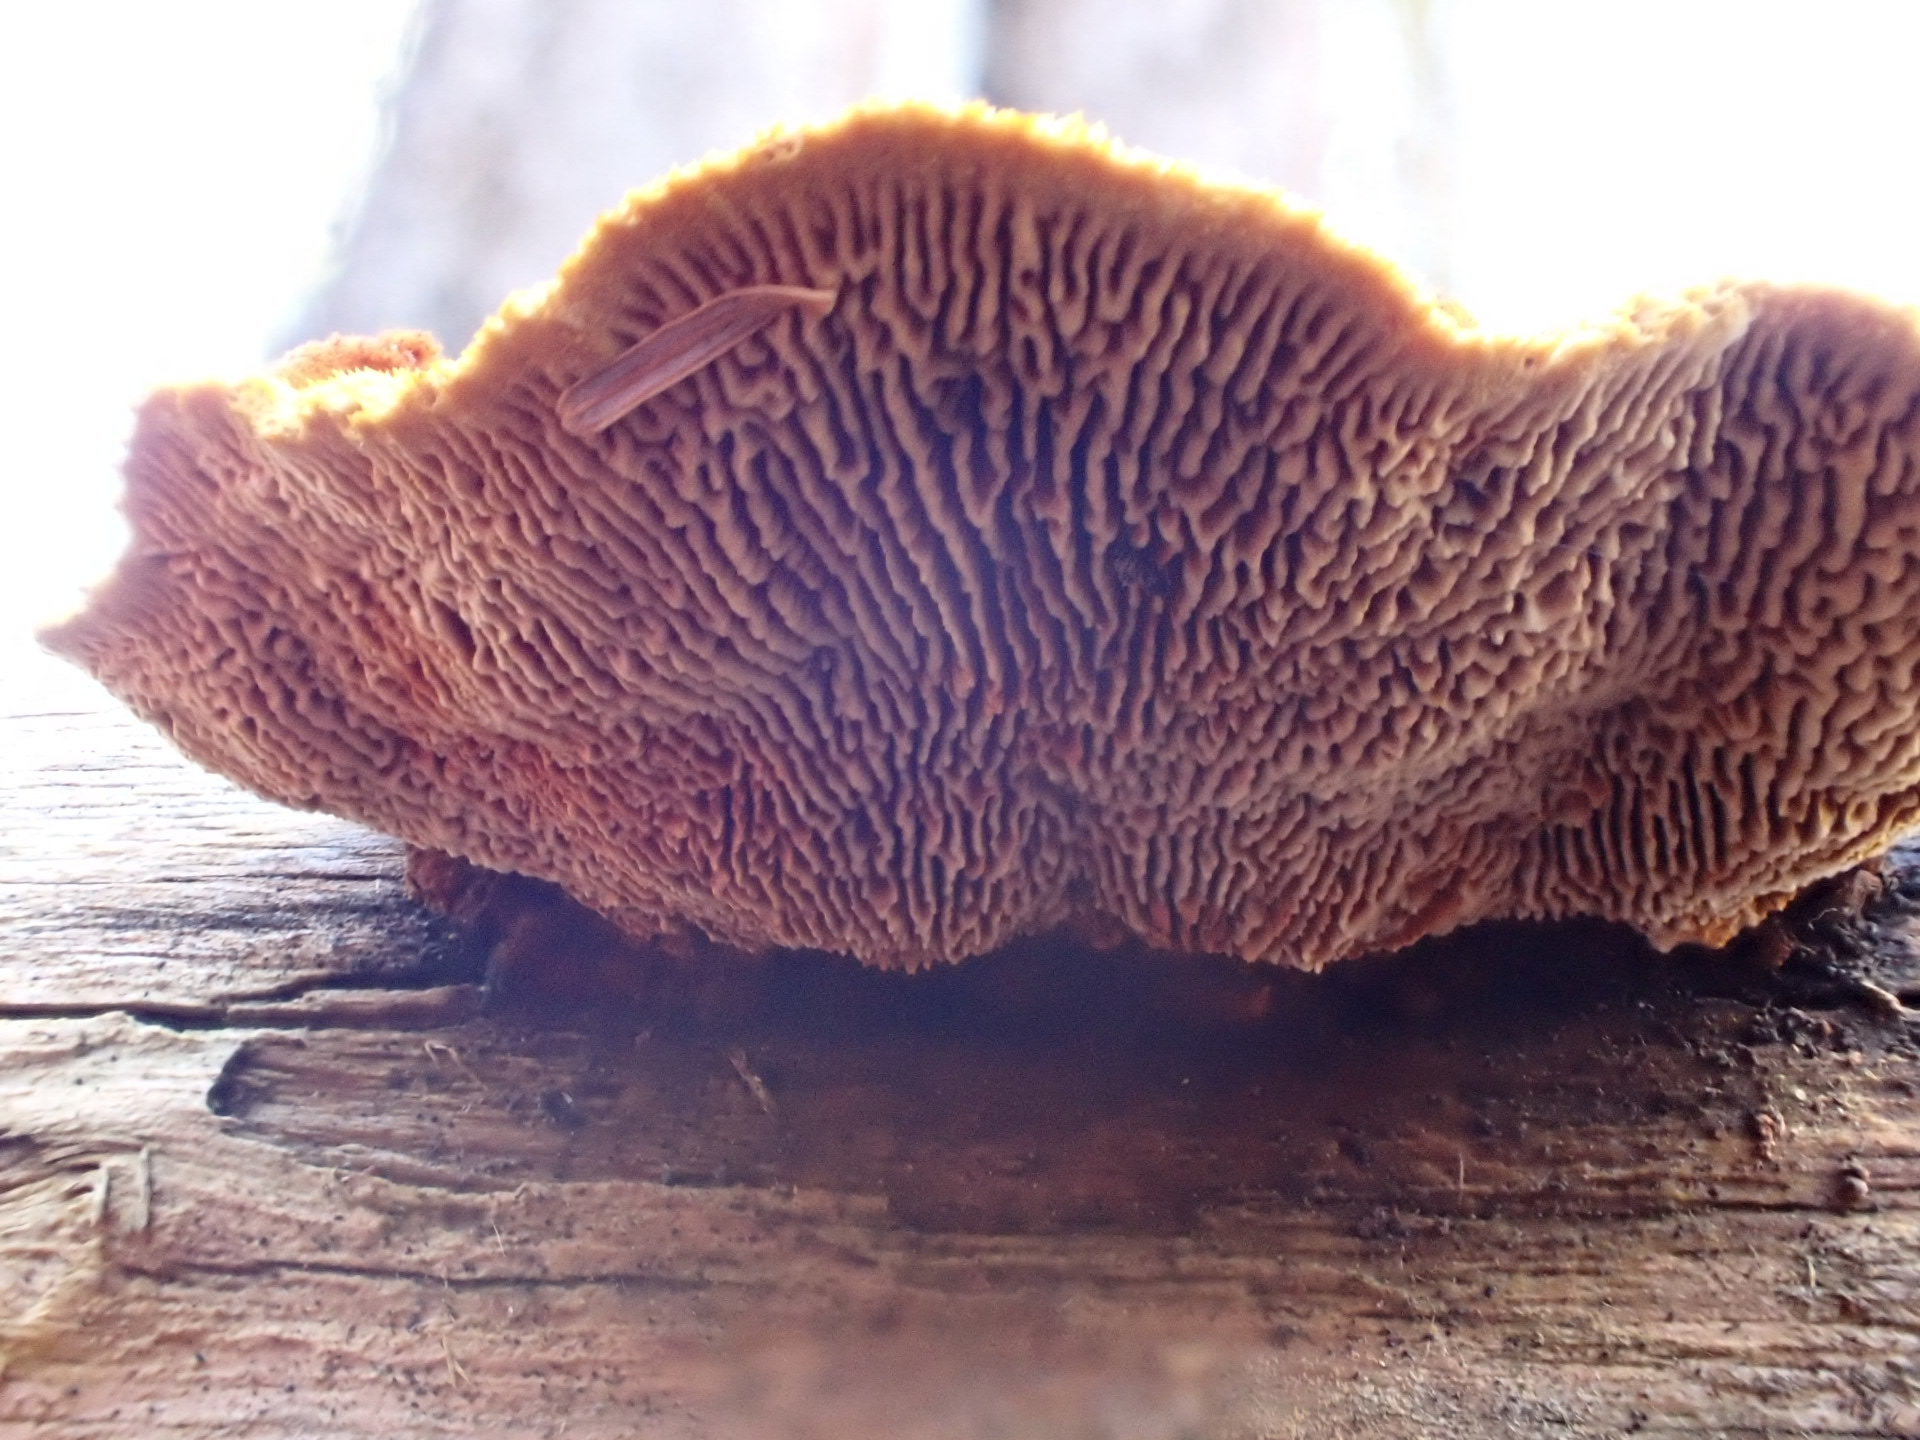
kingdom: Fungi
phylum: Basidiomycota
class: Agaricomycetes
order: Gloeophyllales
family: Gloeophyllaceae
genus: Gloeophyllum
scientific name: Gloeophyllum sepiarium
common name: Conifer mazegill
